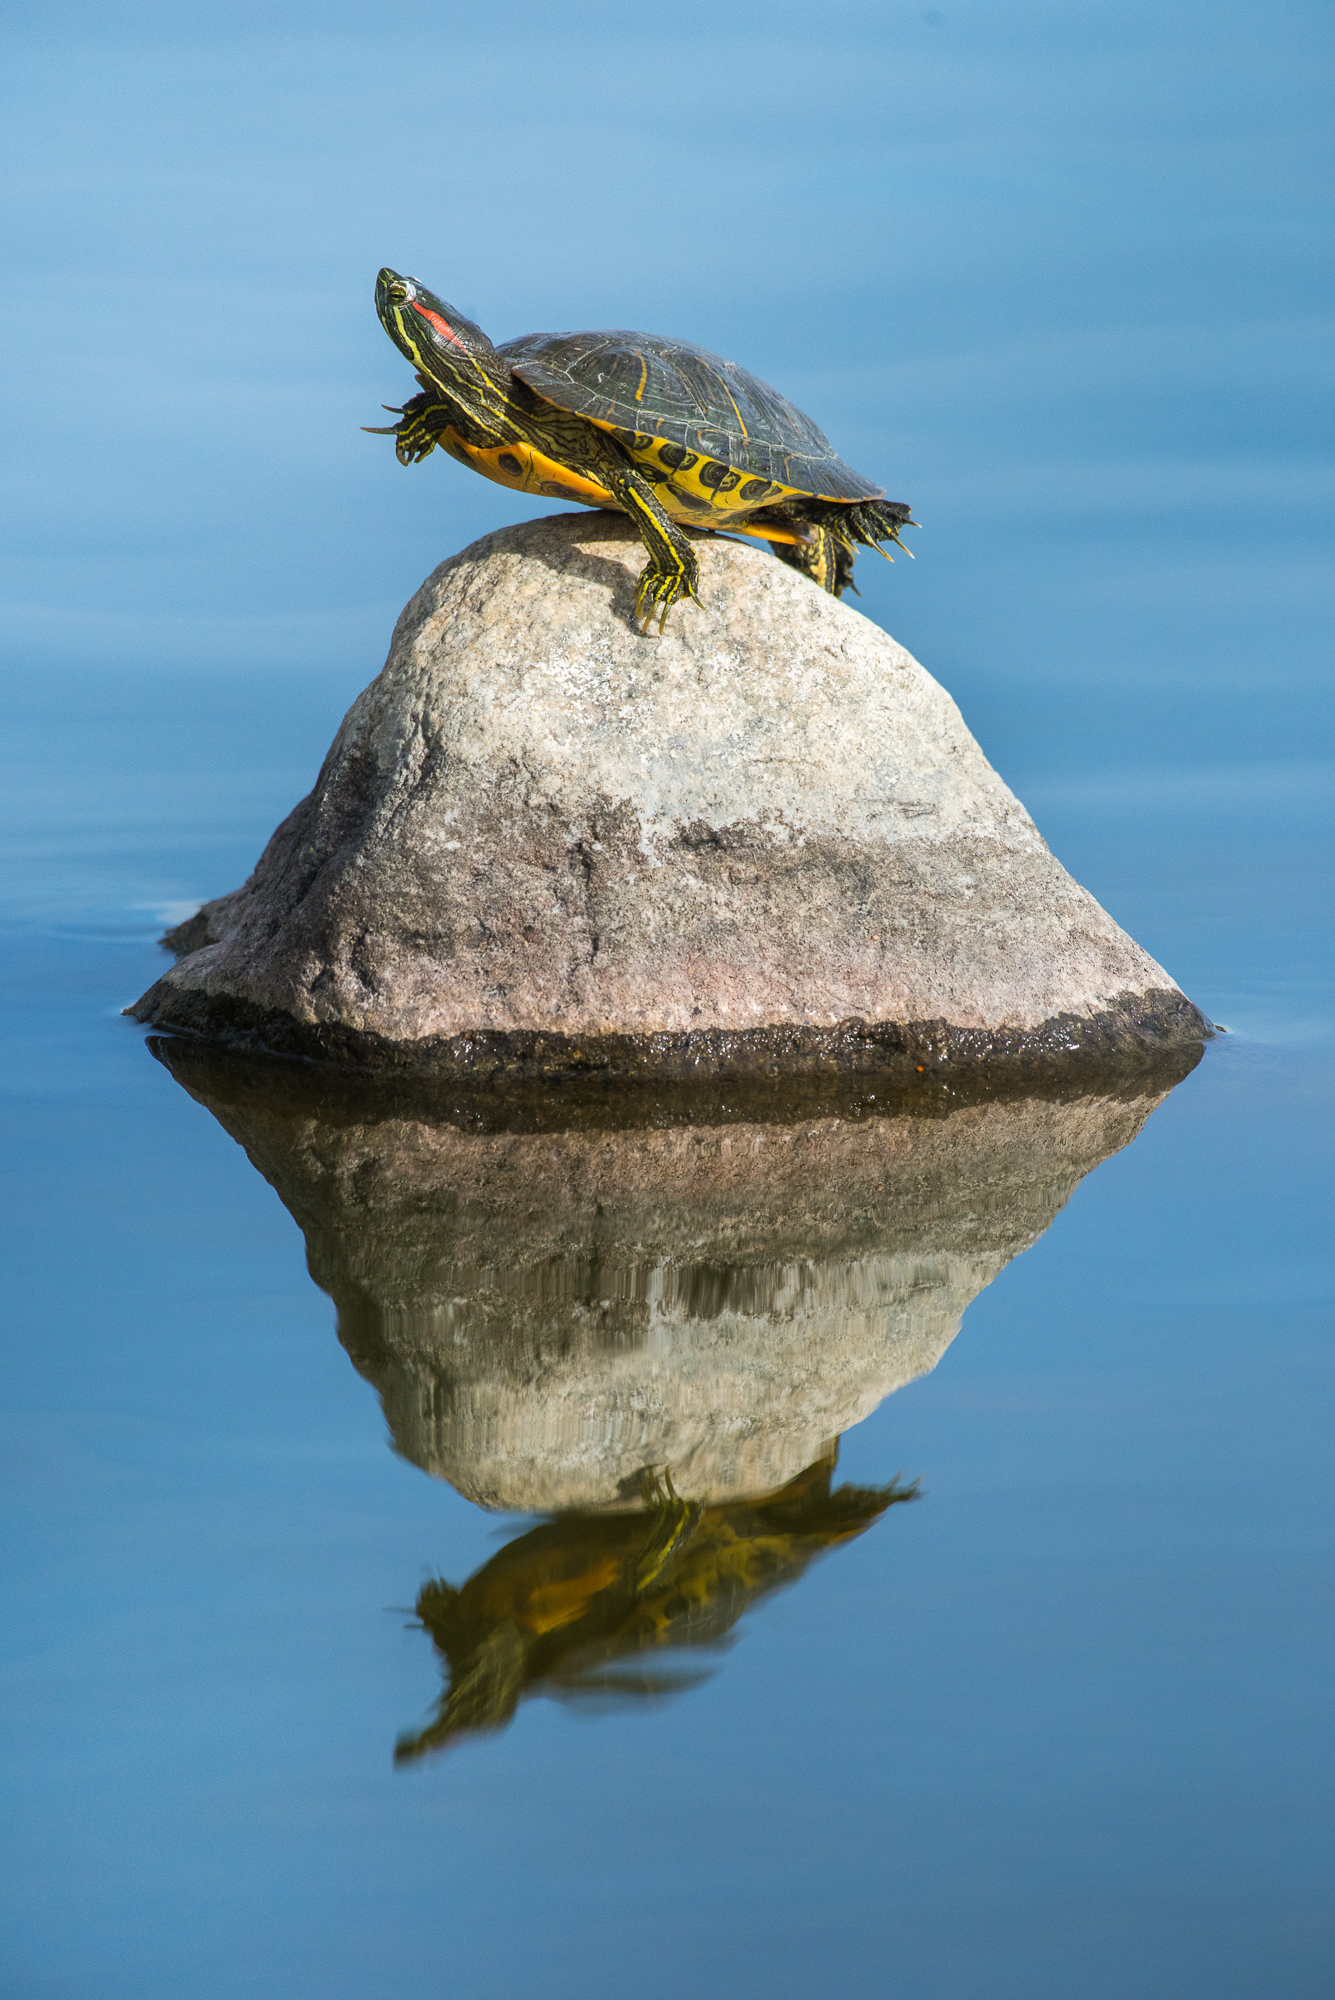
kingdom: Animalia
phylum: Chordata
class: Testudines
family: Emydidae
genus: Trachemys
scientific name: Trachemys scripta
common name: Slider
